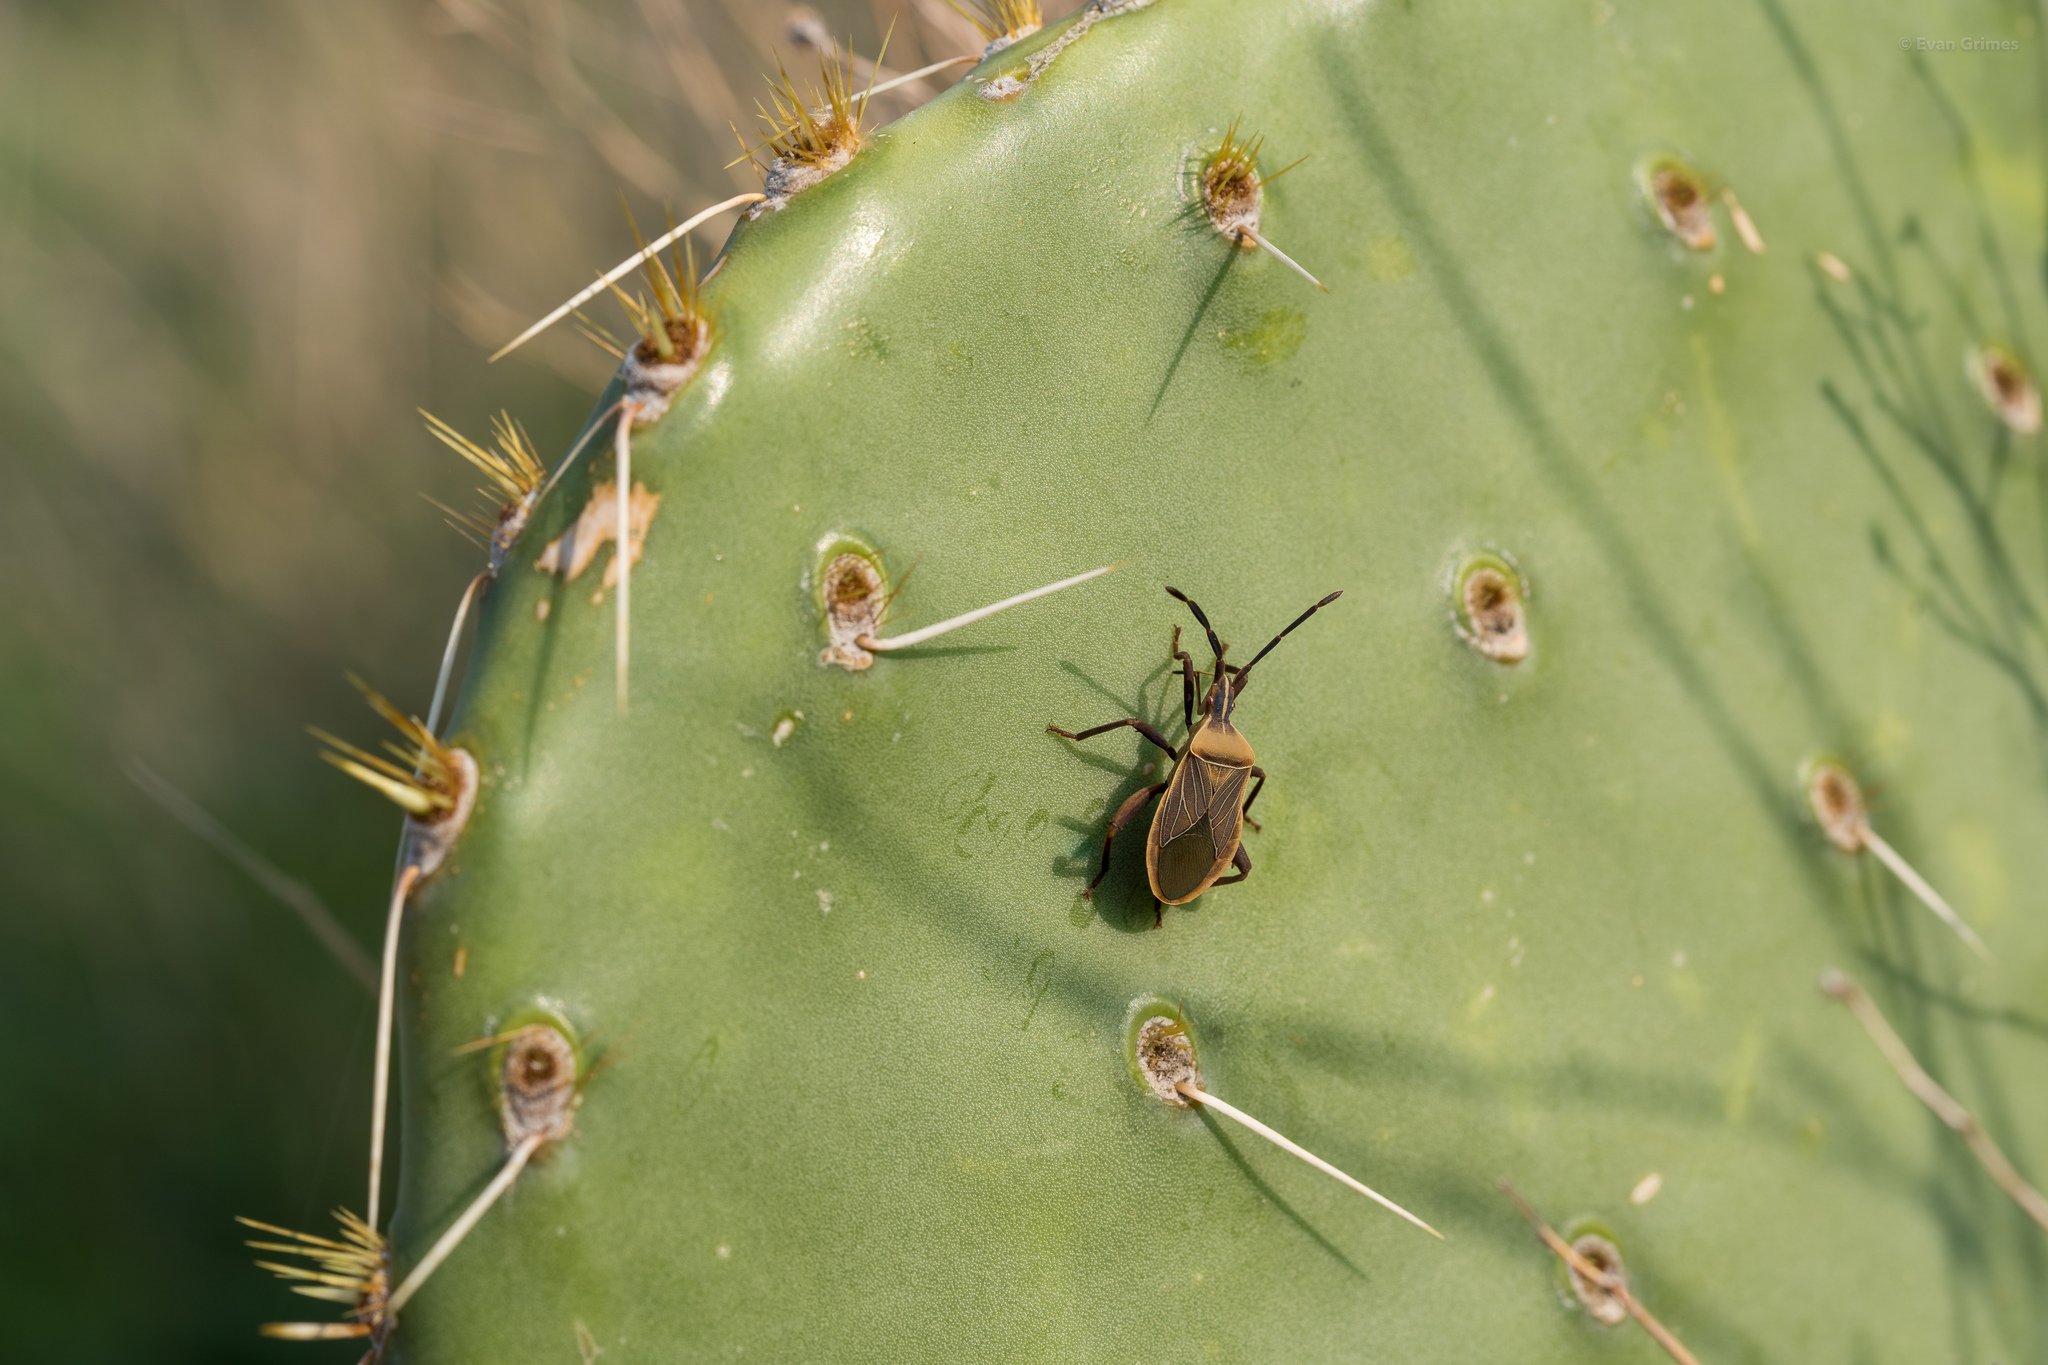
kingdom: Animalia
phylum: Arthropoda
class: Insecta
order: Hemiptera
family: Coreidae
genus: Chelinidea
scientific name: Chelinidea vittiger
